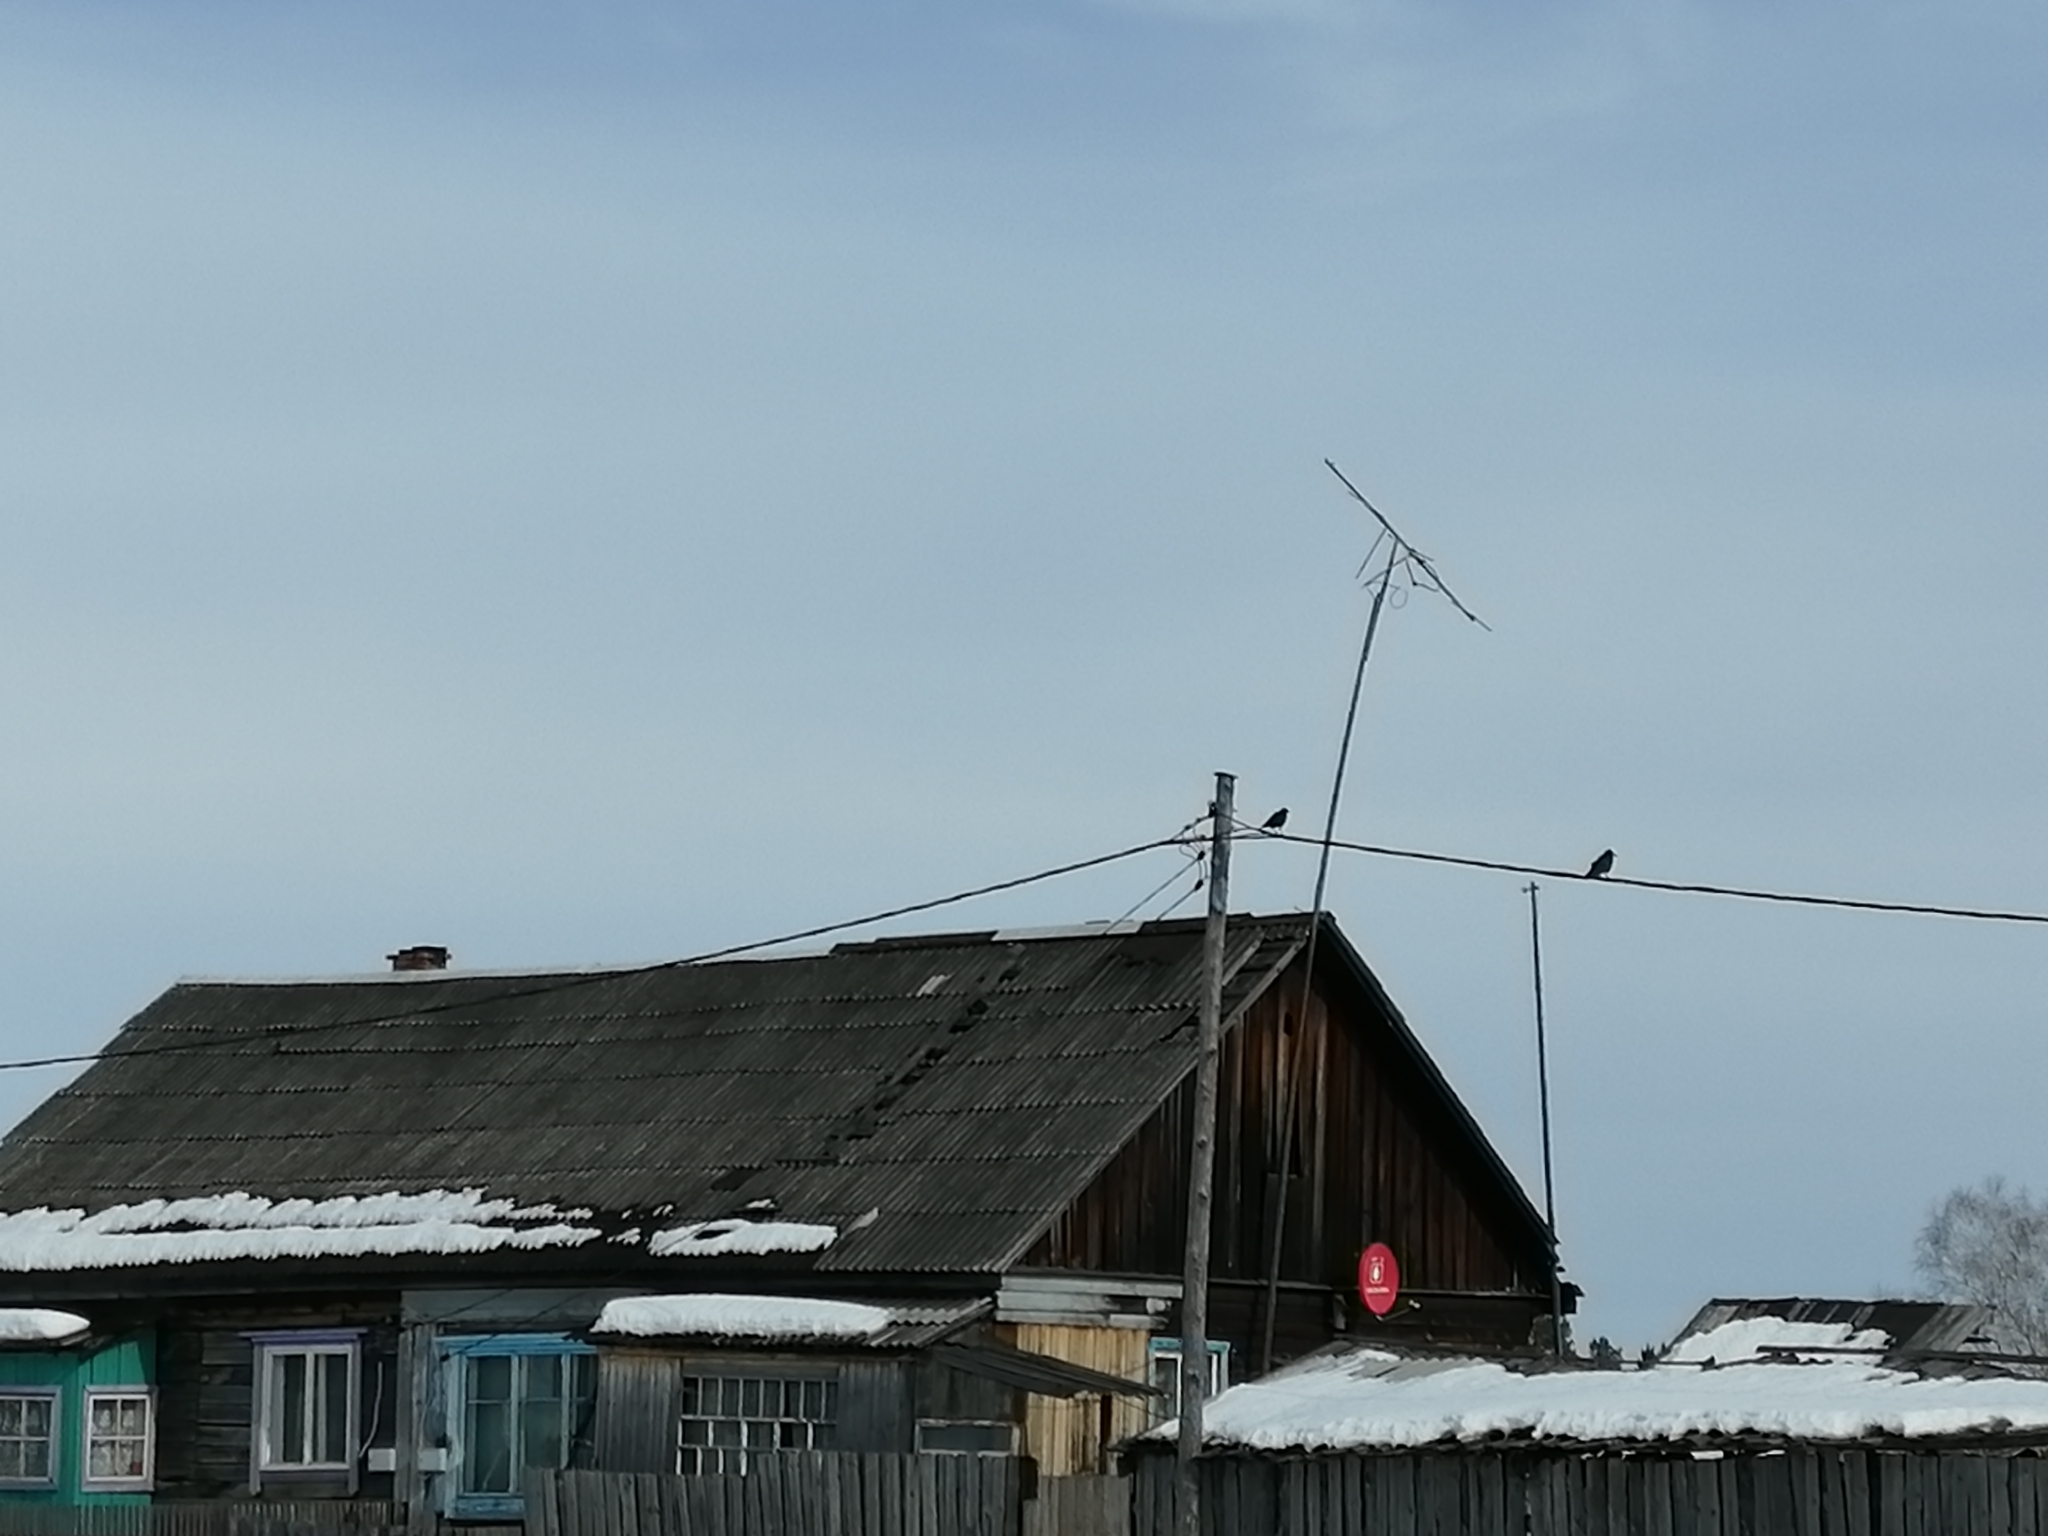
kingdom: Animalia
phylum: Chordata
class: Aves
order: Passeriformes
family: Corvidae
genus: Corvus
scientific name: Corvus corone
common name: Carrion crow
